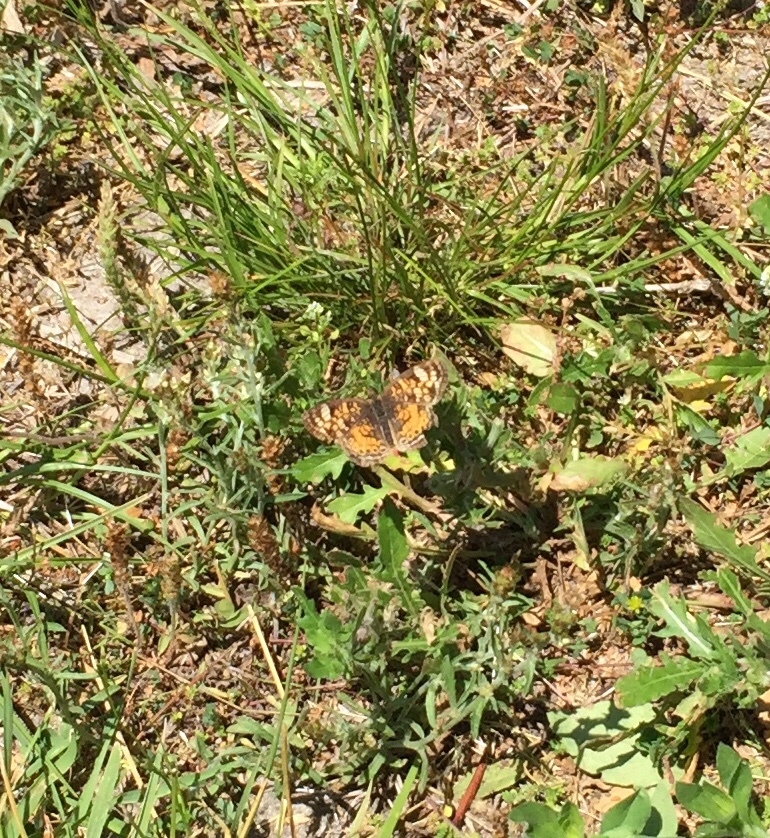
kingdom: Animalia
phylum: Arthropoda
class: Insecta
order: Lepidoptera
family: Nymphalidae
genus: Phyciodes
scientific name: Phyciodes tharos
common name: Pearl crescent
